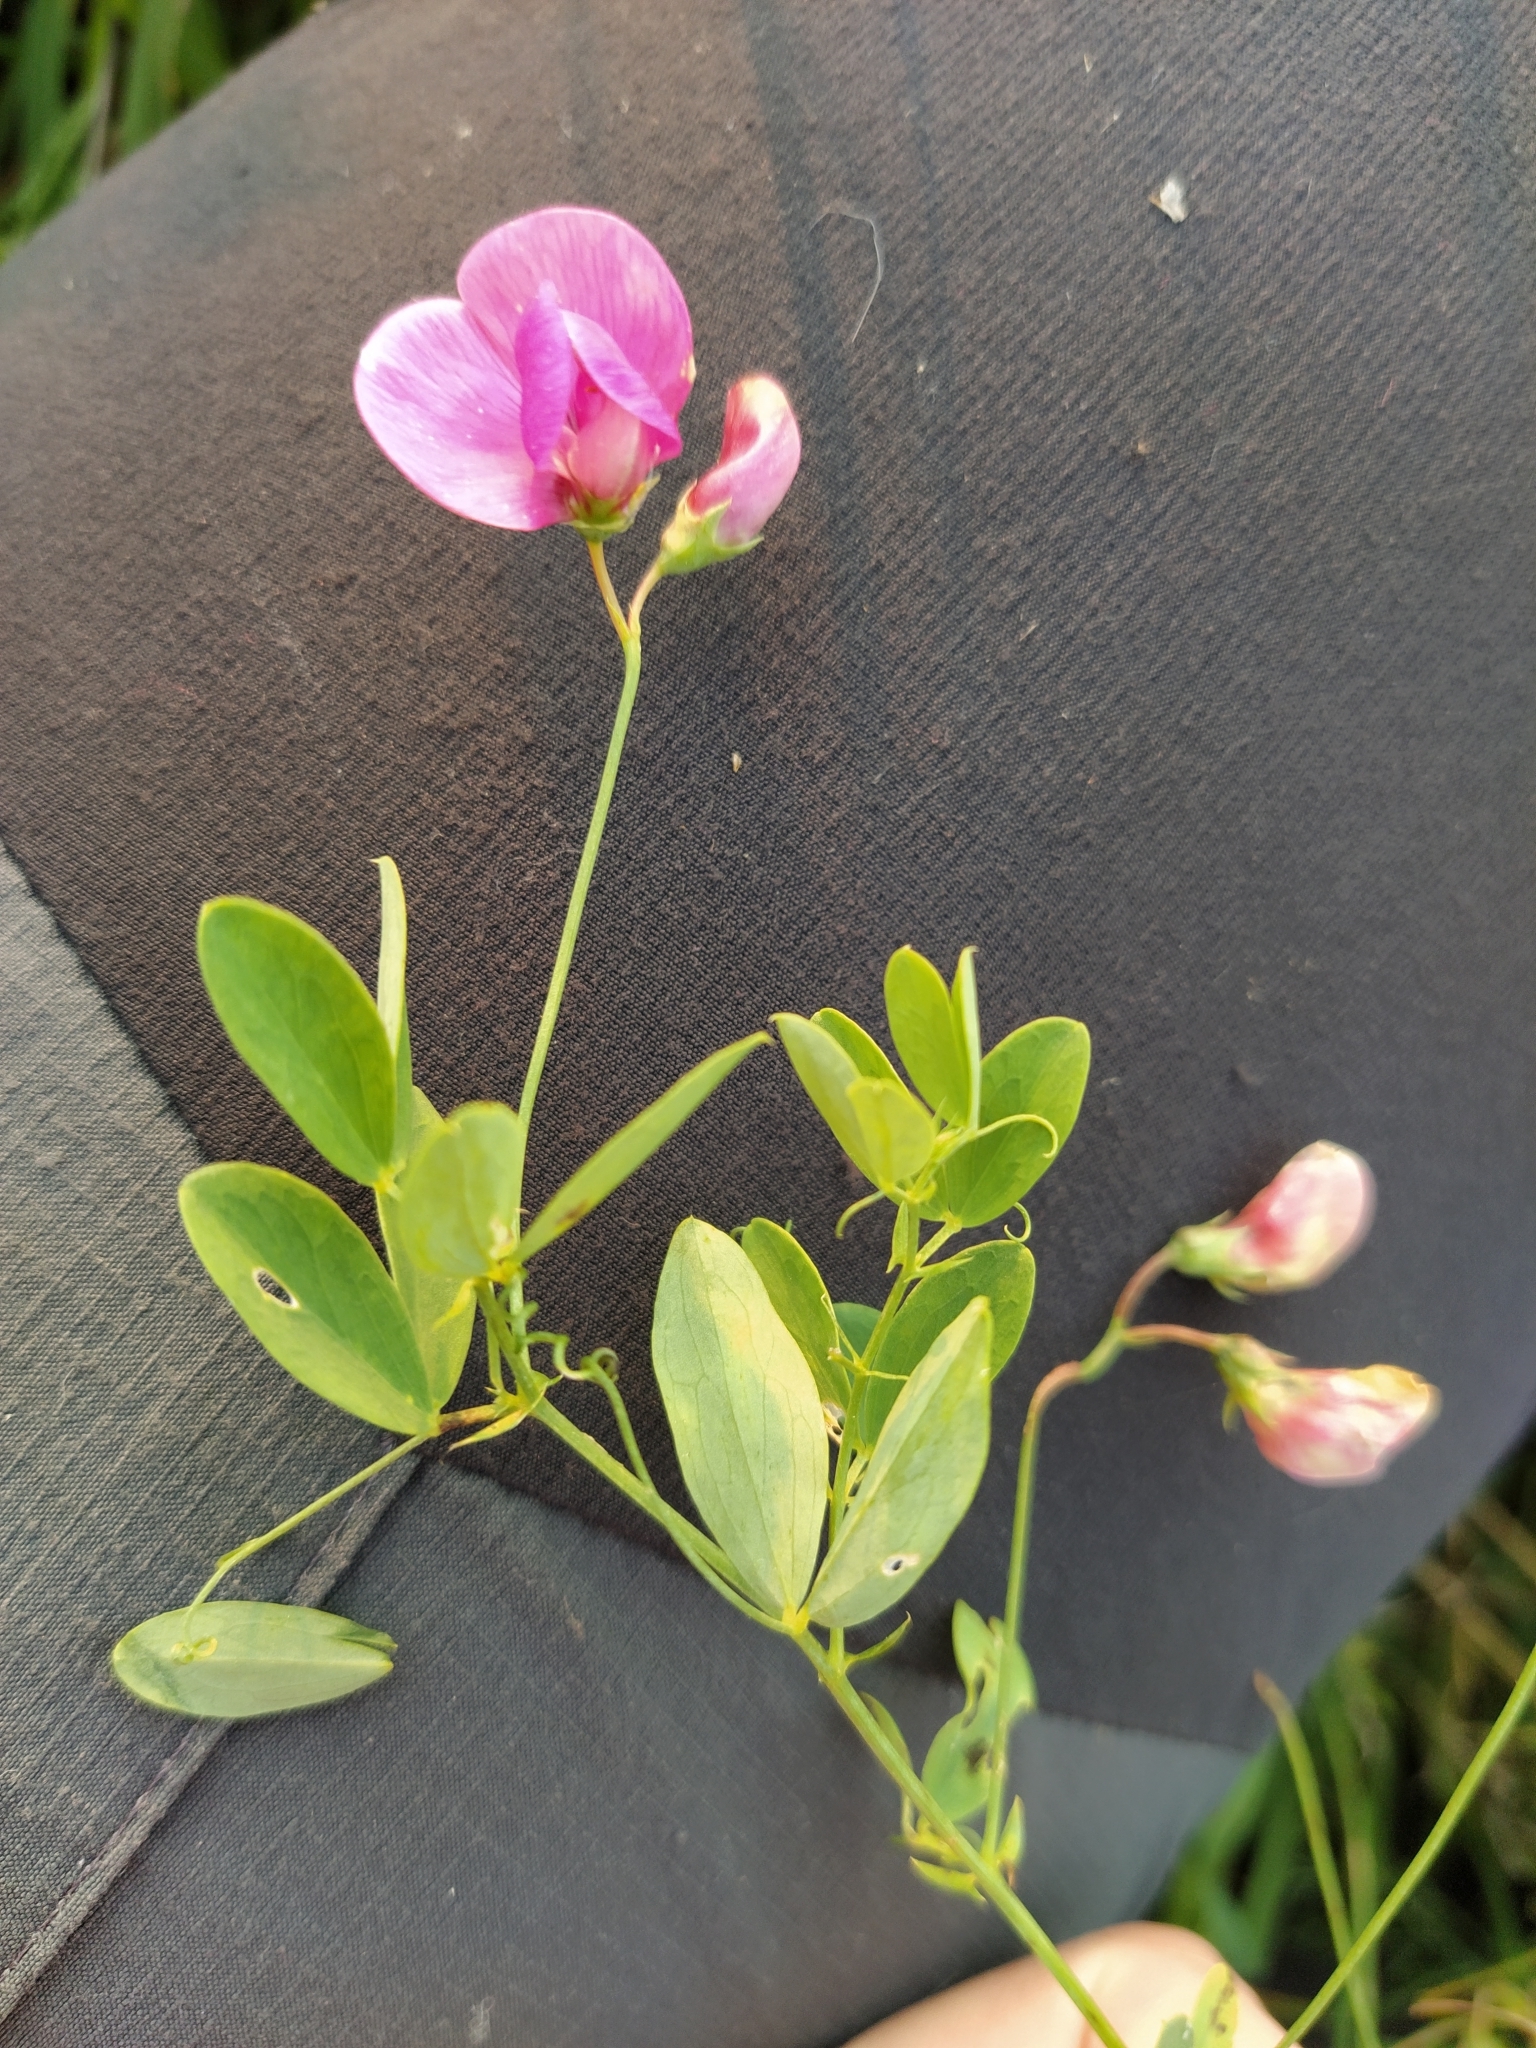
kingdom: Plantae
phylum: Tracheophyta
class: Magnoliopsida
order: Fabales
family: Fabaceae
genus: Lathyrus
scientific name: Lathyrus tuberosus
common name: Tuberous pea
